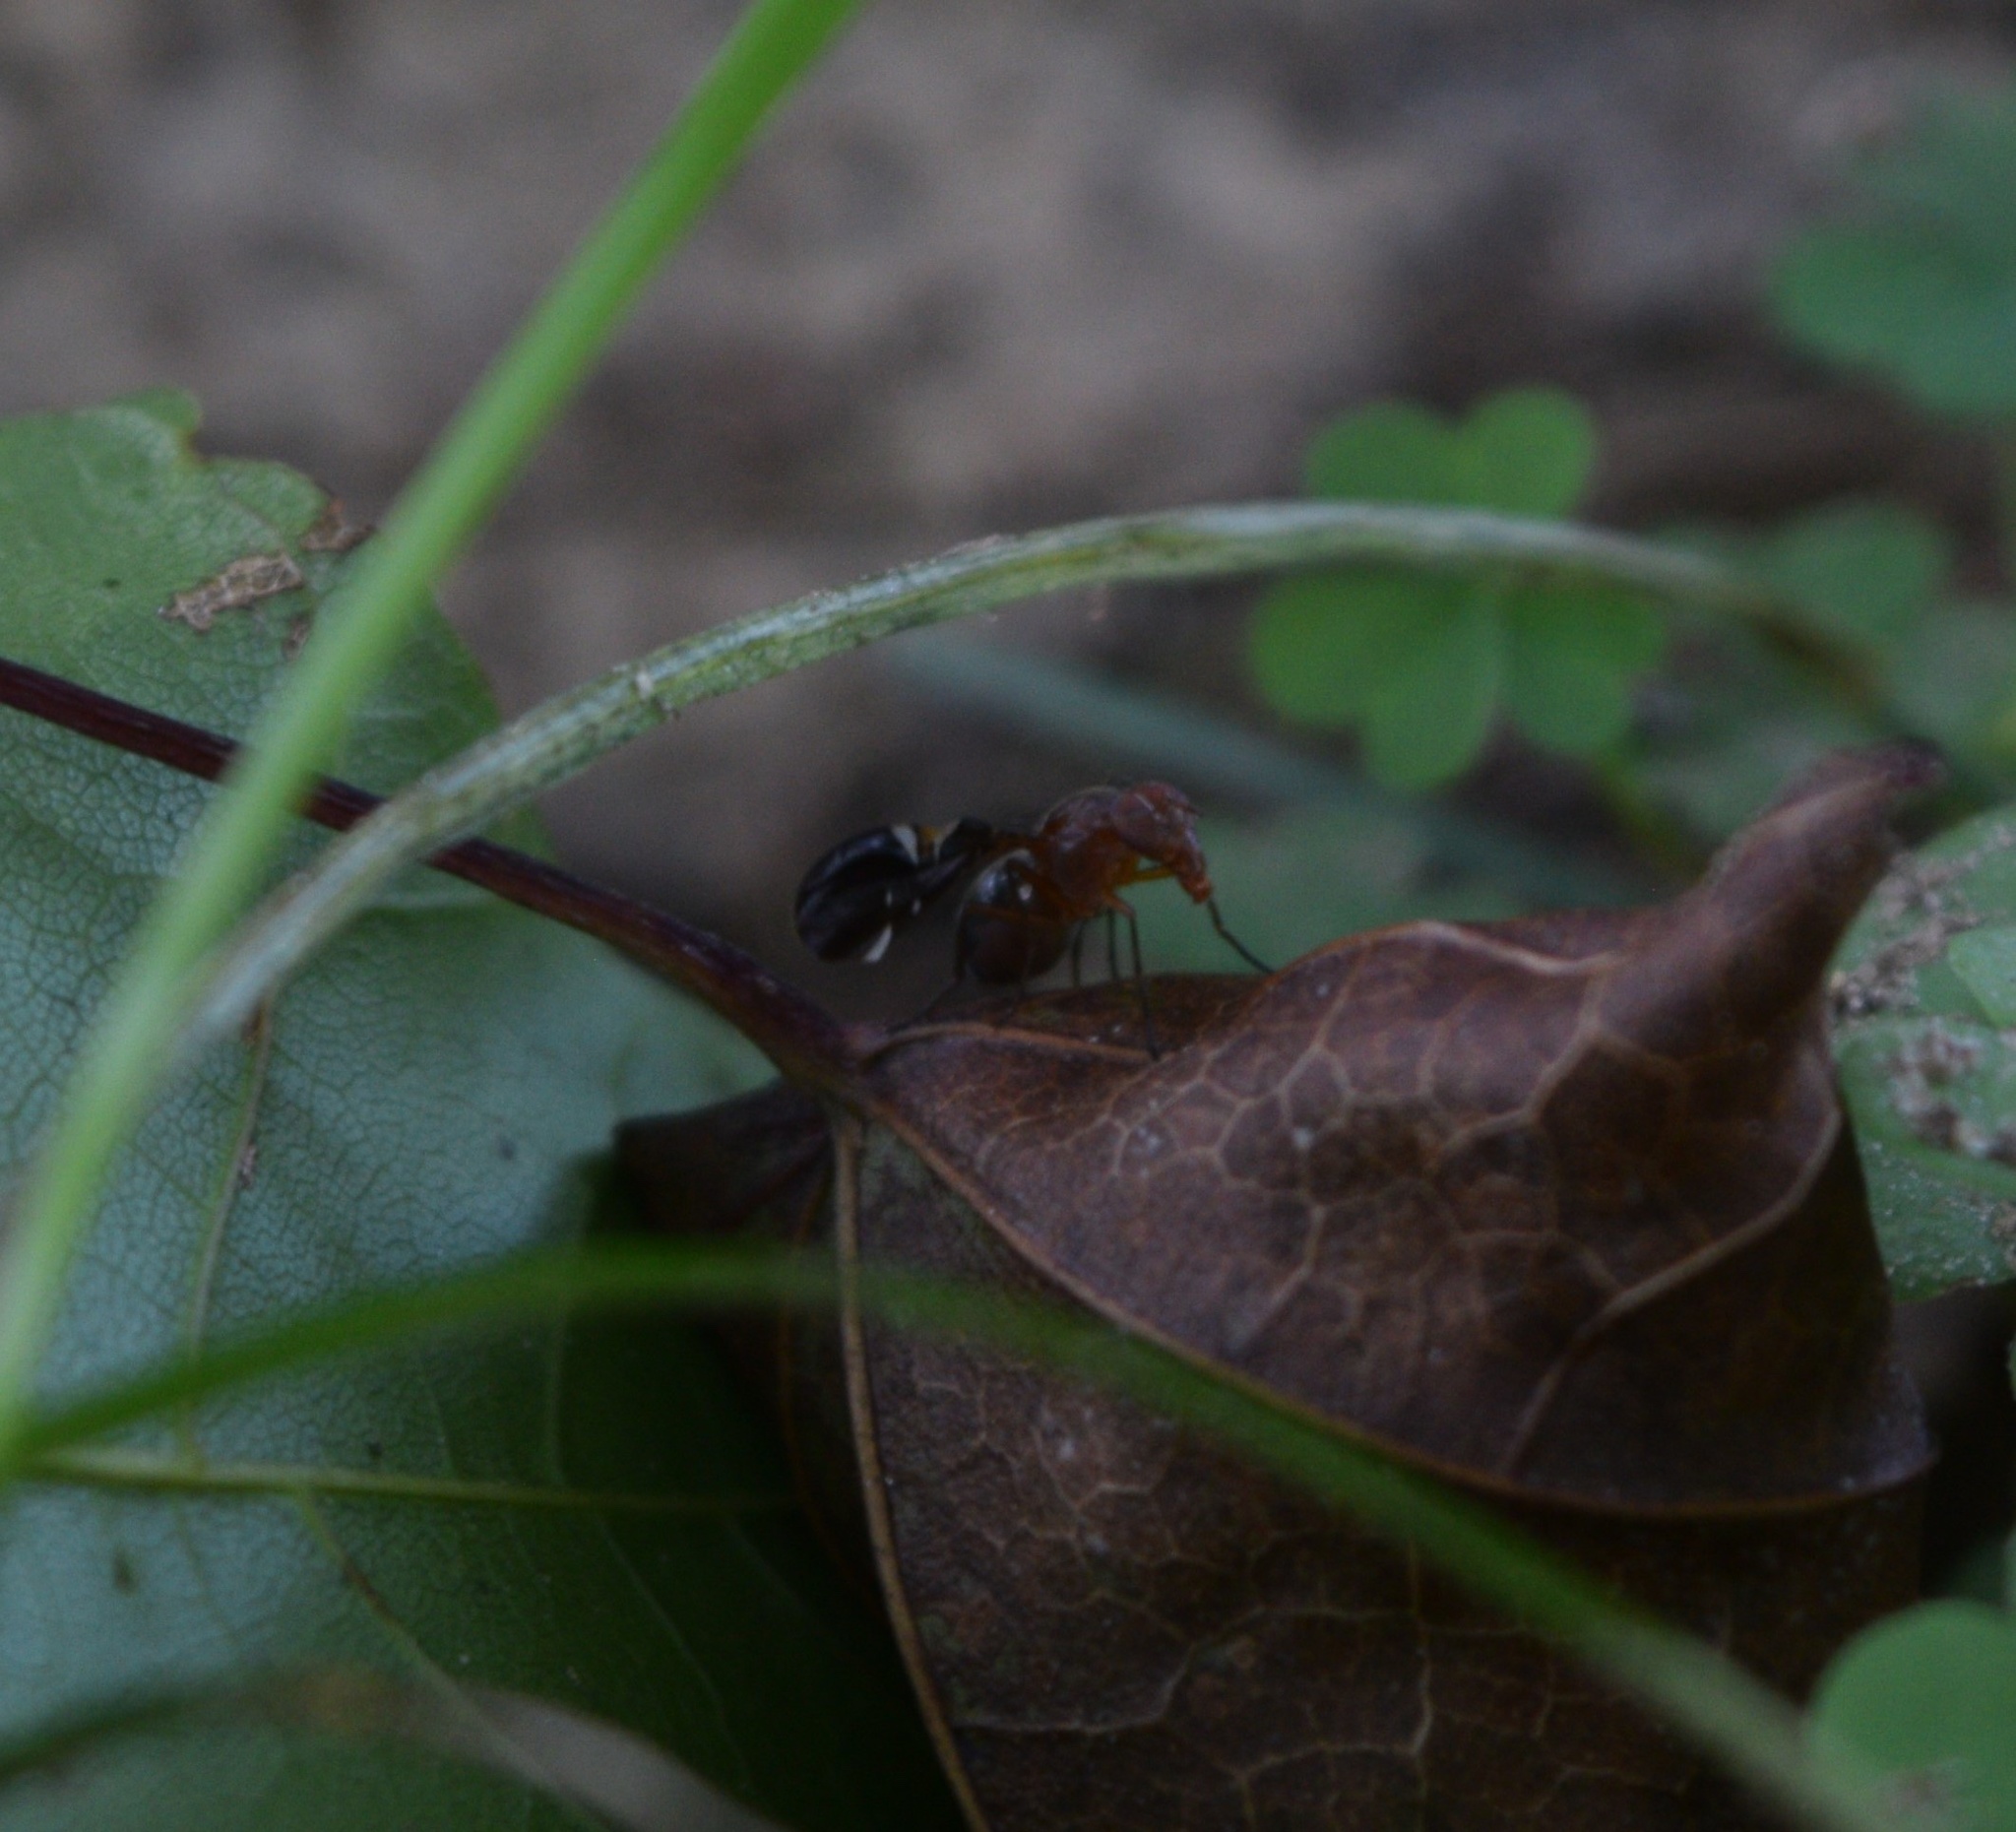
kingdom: Animalia
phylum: Arthropoda
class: Insecta
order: Diptera
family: Ulidiidae
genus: Delphinia
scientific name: Delphinia picta
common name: Common picture-winged fly
